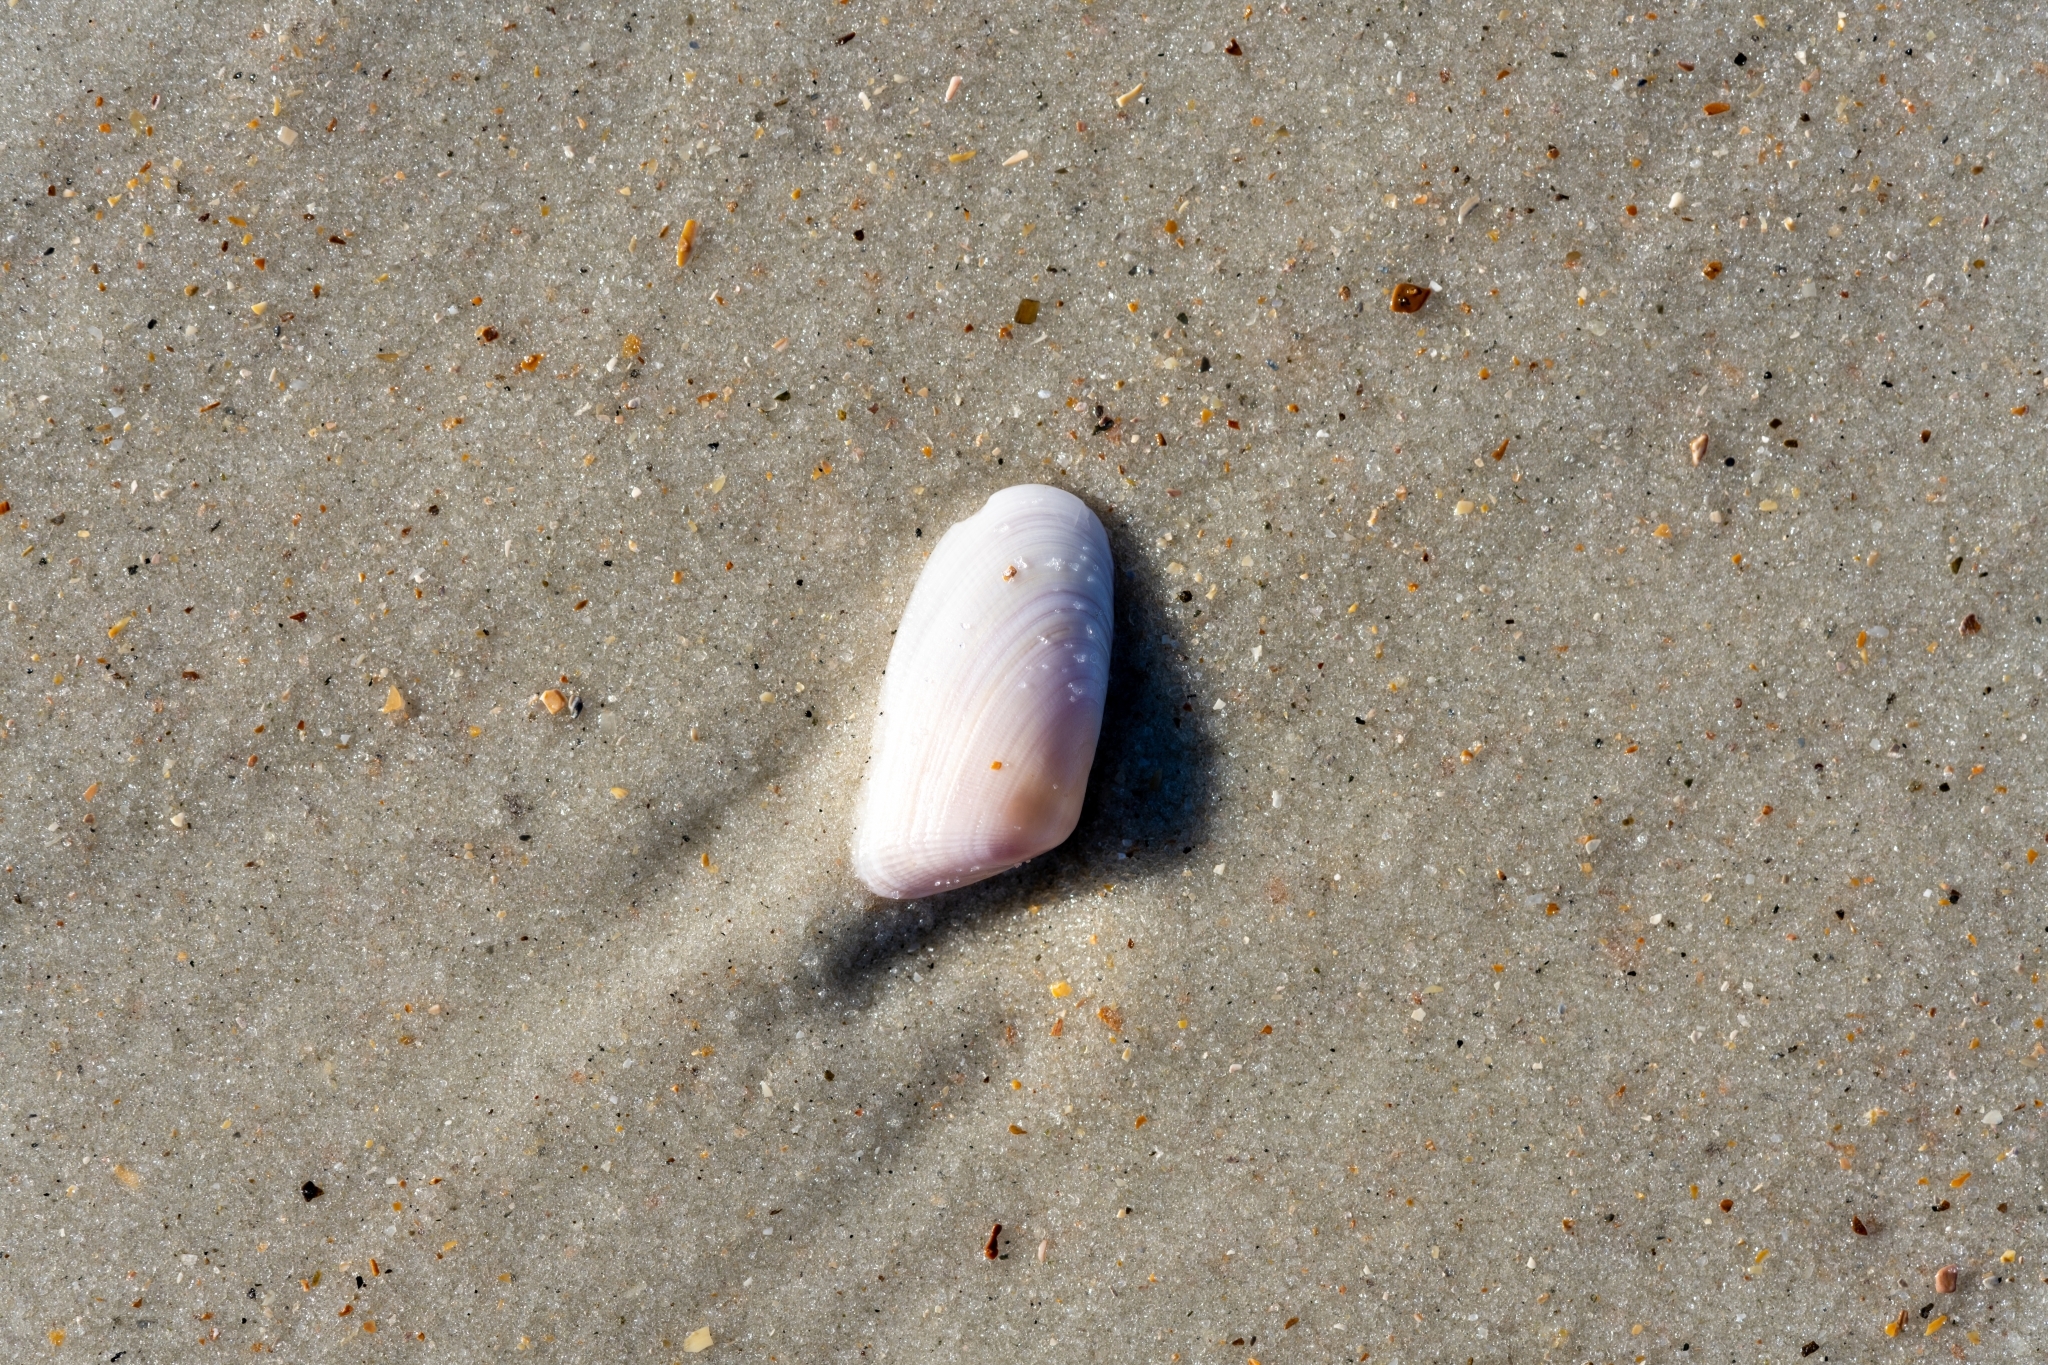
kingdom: Animalia
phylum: Mollusca
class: Bivalvia
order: Cardiida
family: Donacidae
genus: Donax
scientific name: Donax variabilis
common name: Butterfly shell
